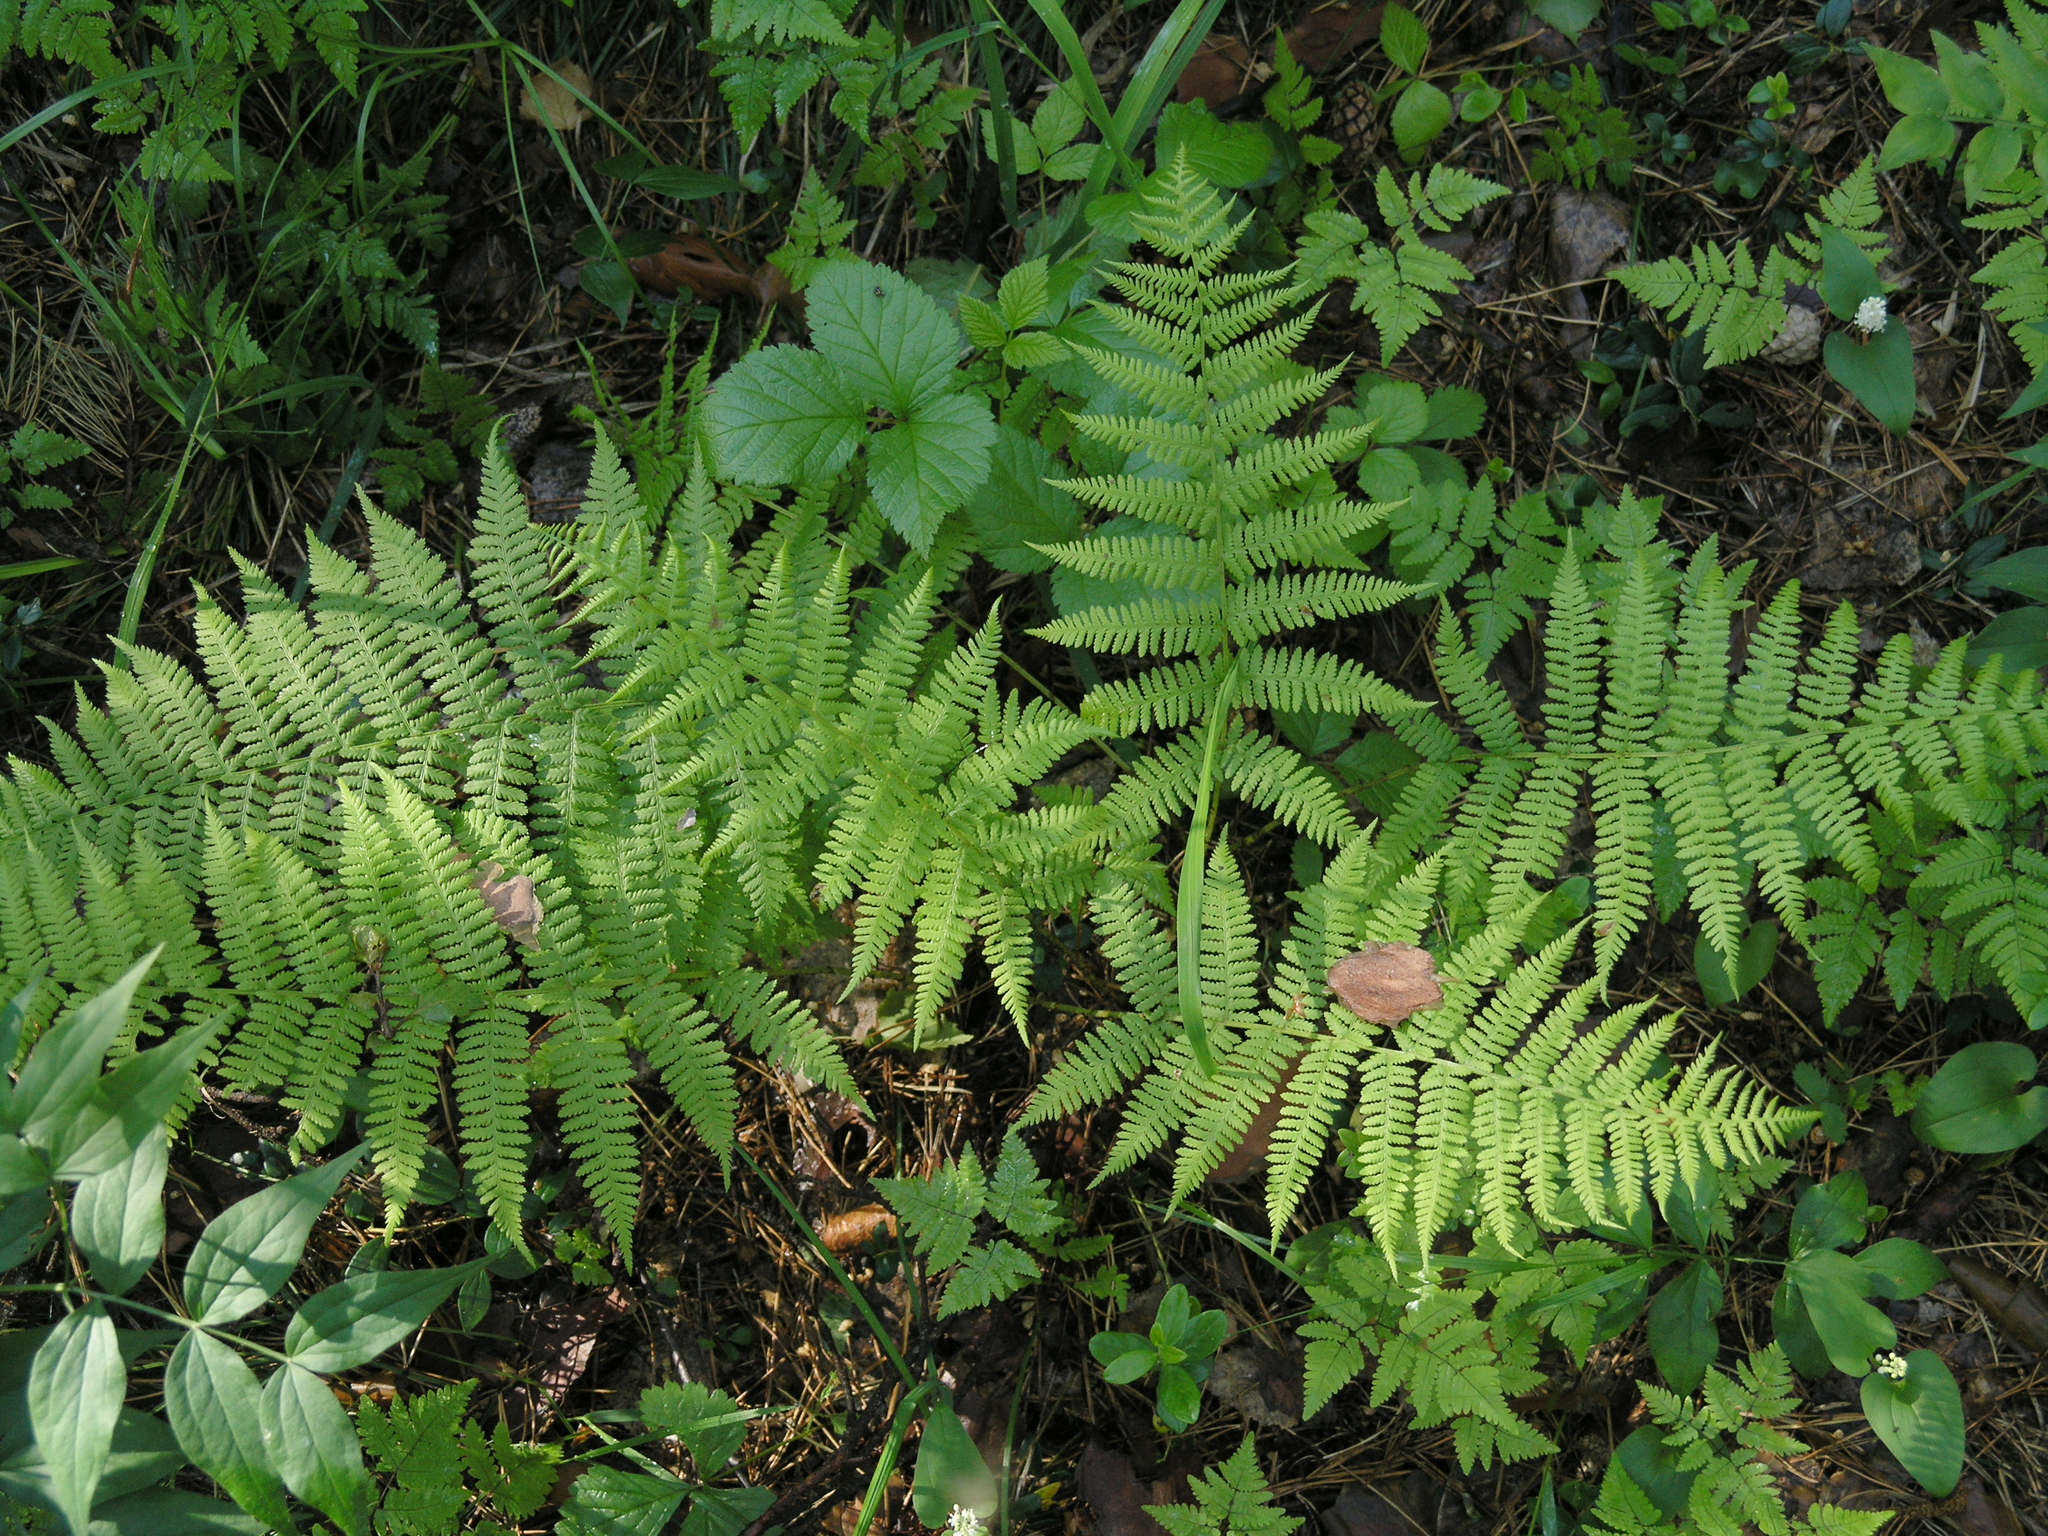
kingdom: Plantae
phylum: Tracheophyta
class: Polypodiopsida
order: Polypodiales
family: Athyriaceae
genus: Athyrium
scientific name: Athyrium filix-femina
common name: Lady fern
